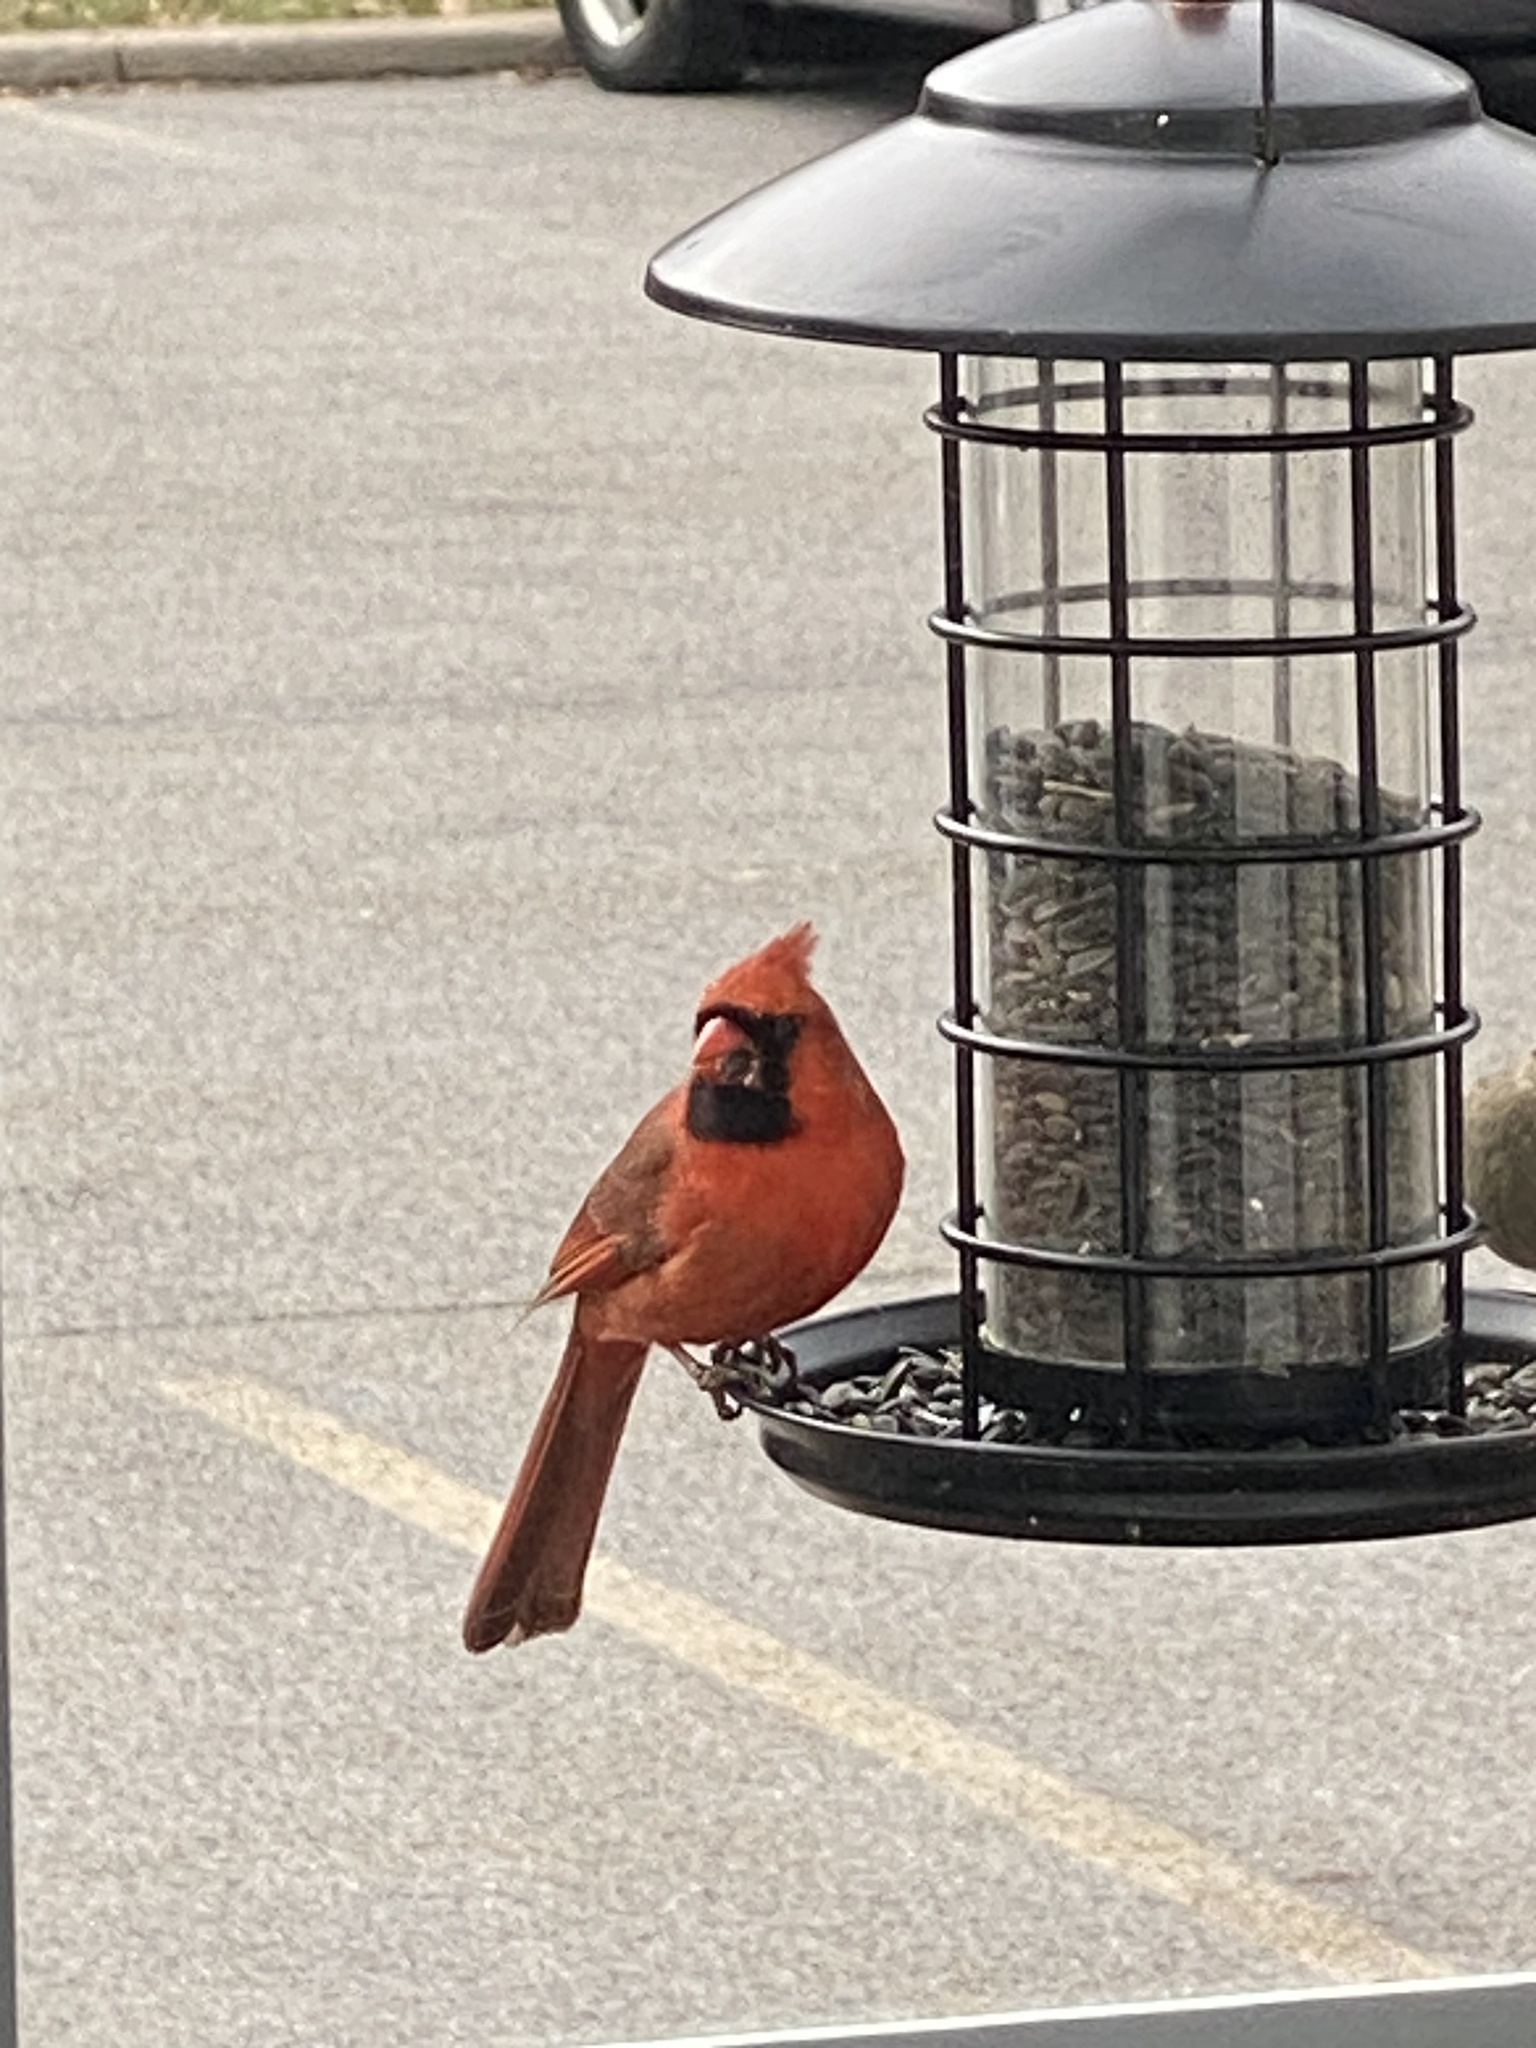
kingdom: Animalia
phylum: Chordata
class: Aves
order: Passeriformes
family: Cardinalidae
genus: Cardinalis
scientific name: Cardinalis cardinalis
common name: Northern cardinal
